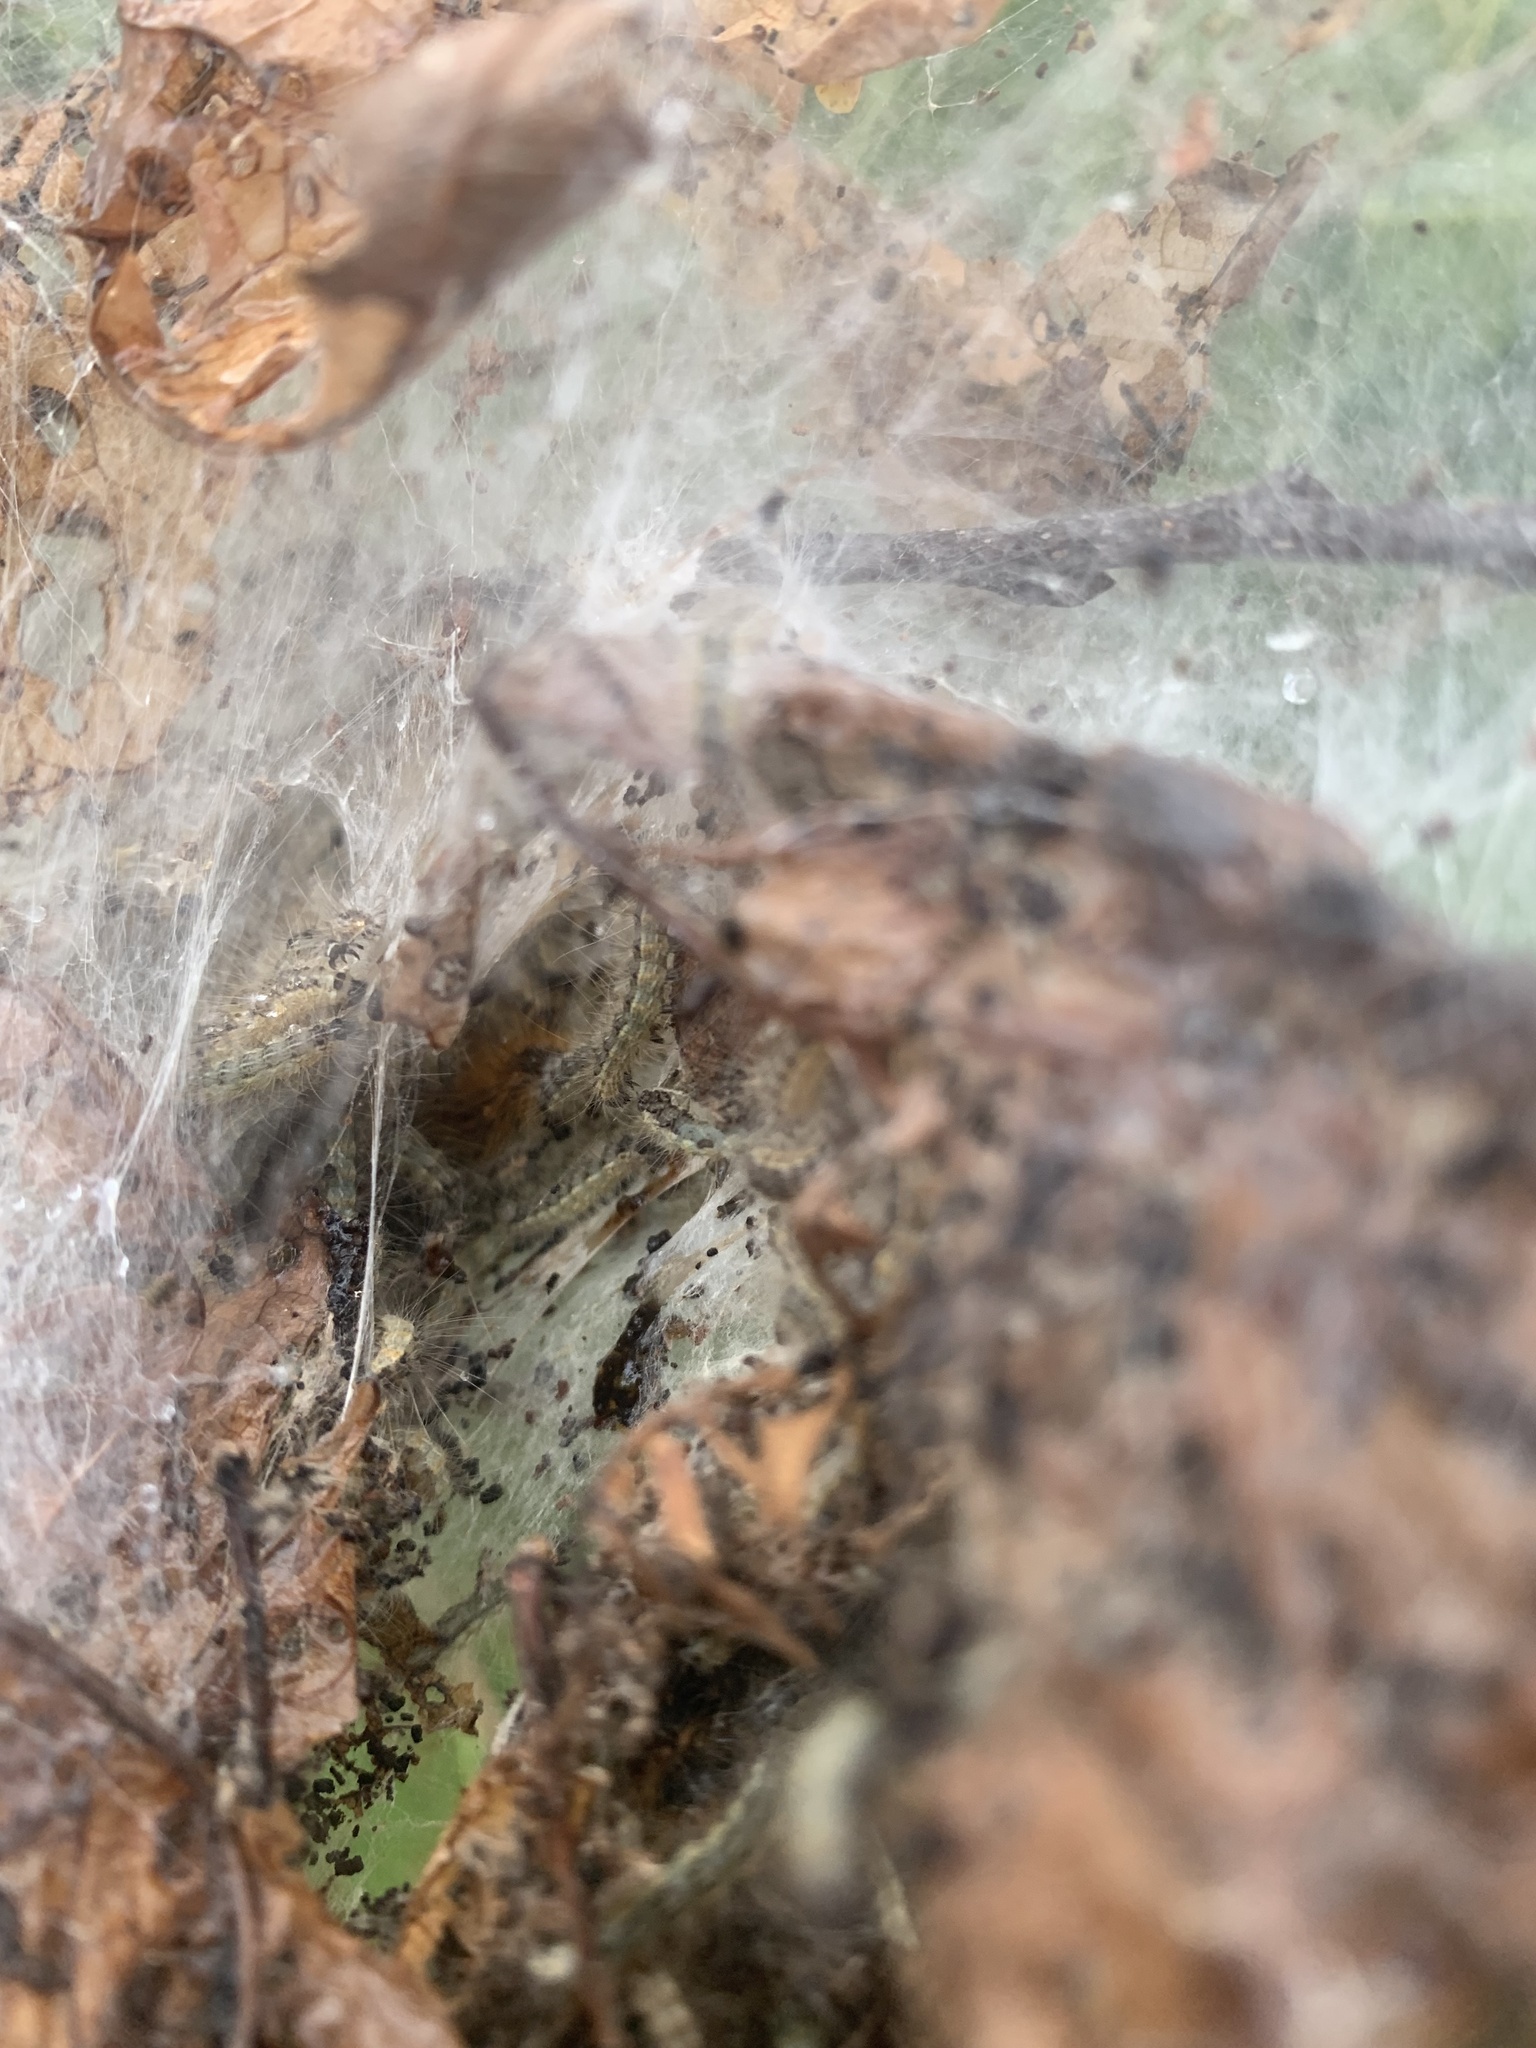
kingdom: Animalia
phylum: Arthropoda
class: Insecta
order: Lepidoptera
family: Erebidae
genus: Hyphantria
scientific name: Hyphantria cunea
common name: American white moth
